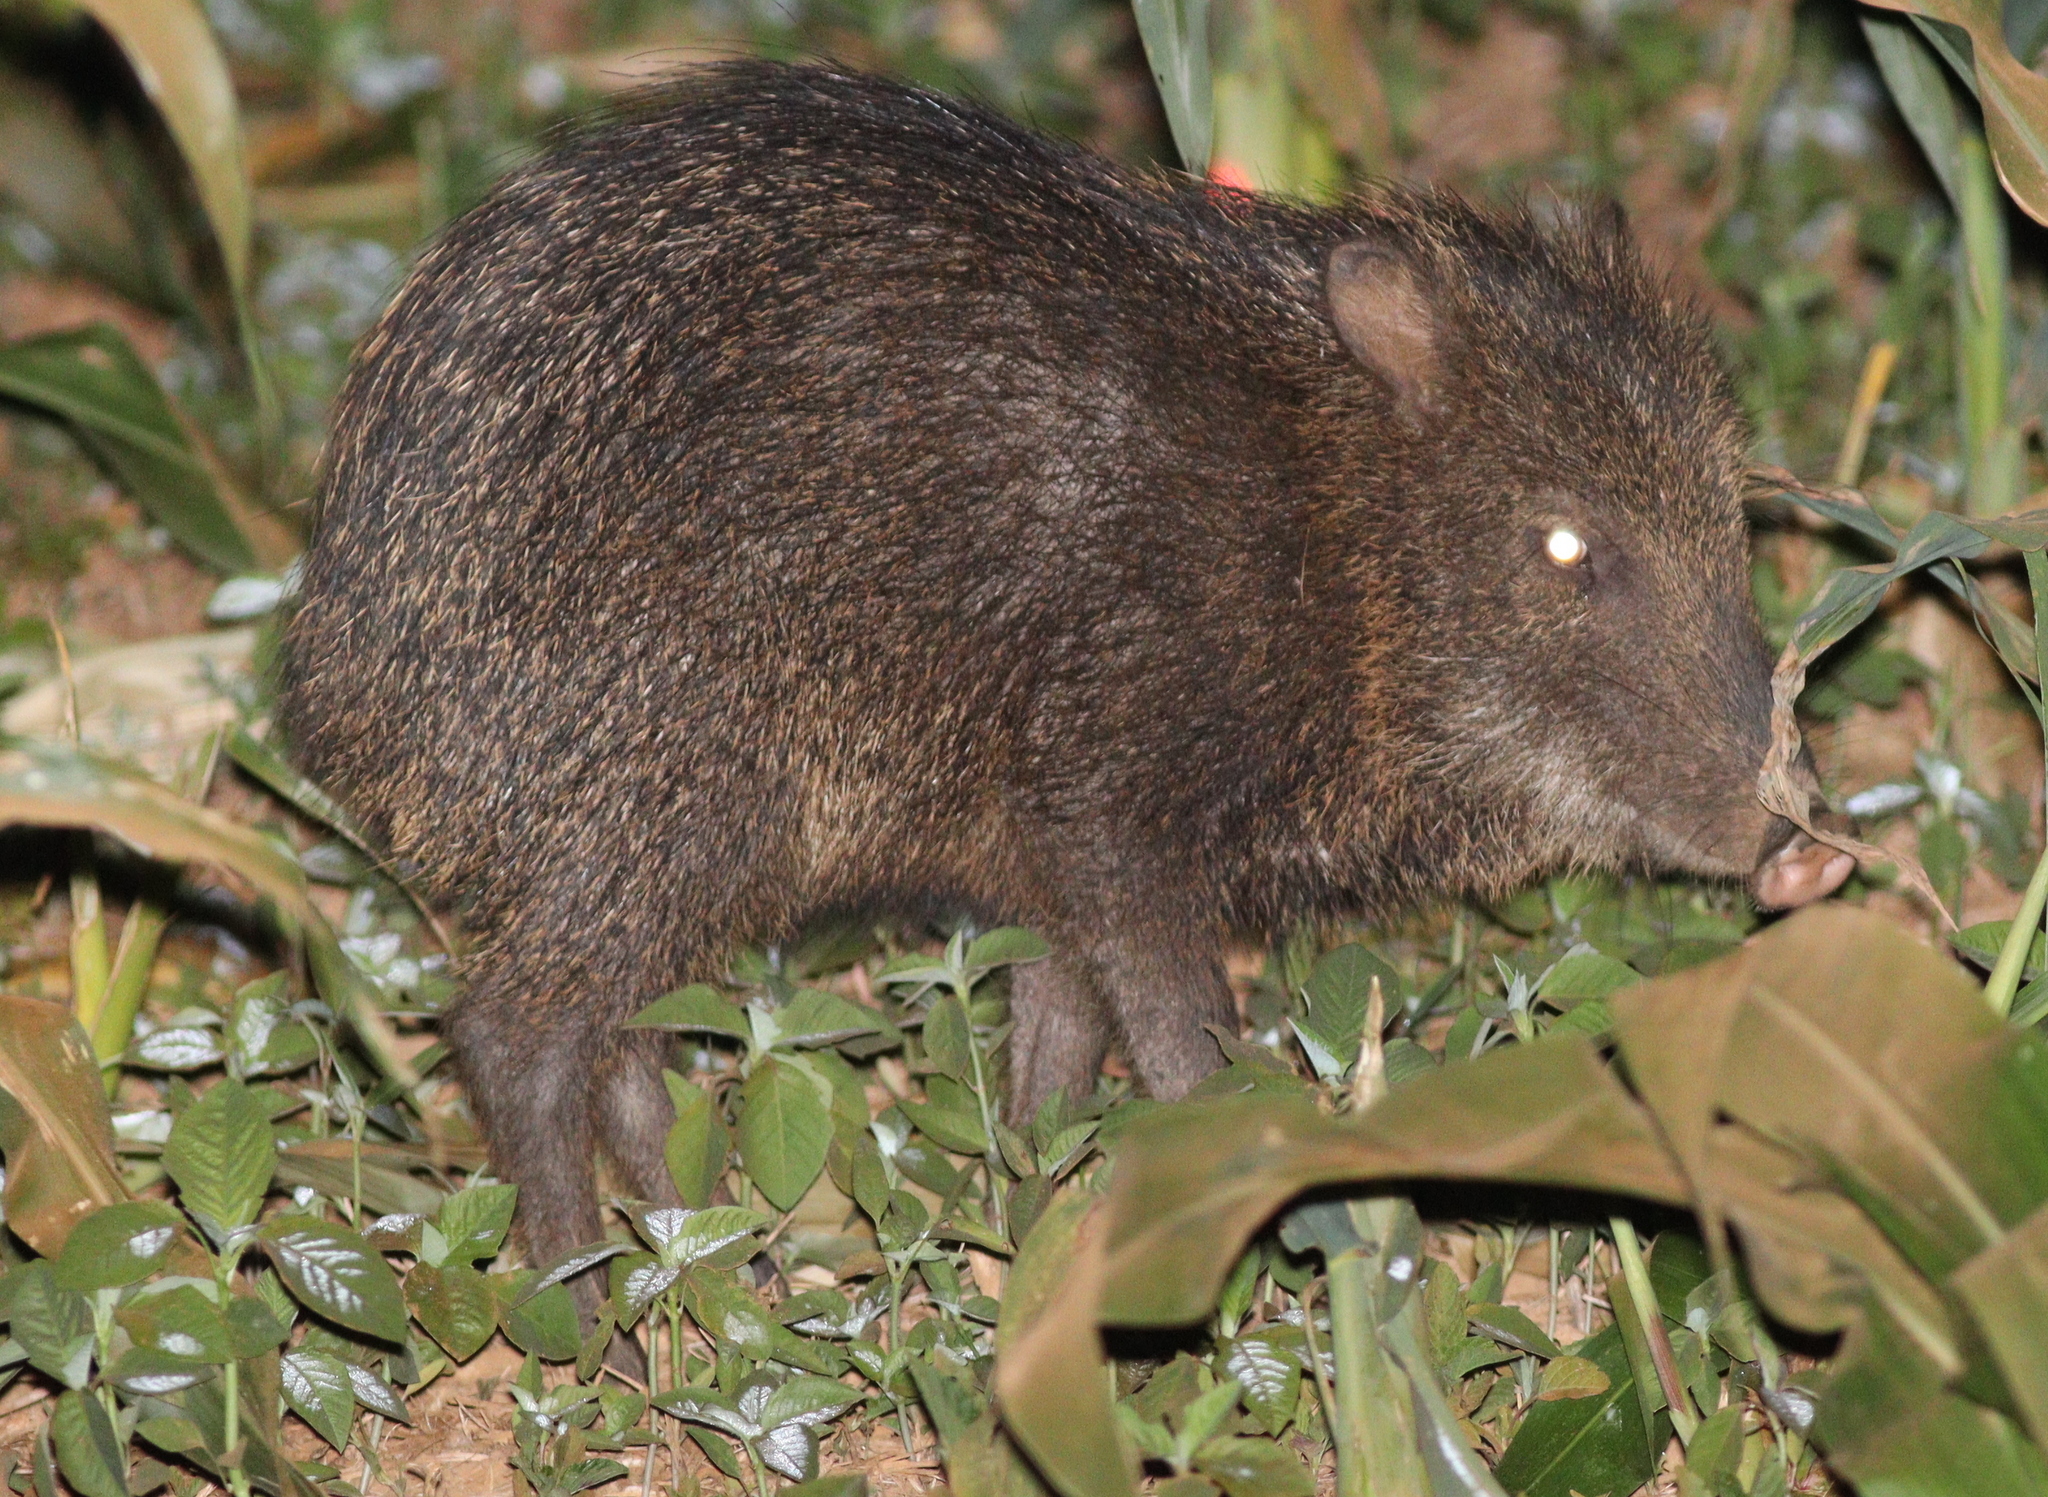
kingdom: Animalia
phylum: Chordata
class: Mammalia
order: Artiodactyla
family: Tayassuidae
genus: Pecari
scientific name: Pecari tajacu
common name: Collared peccary
